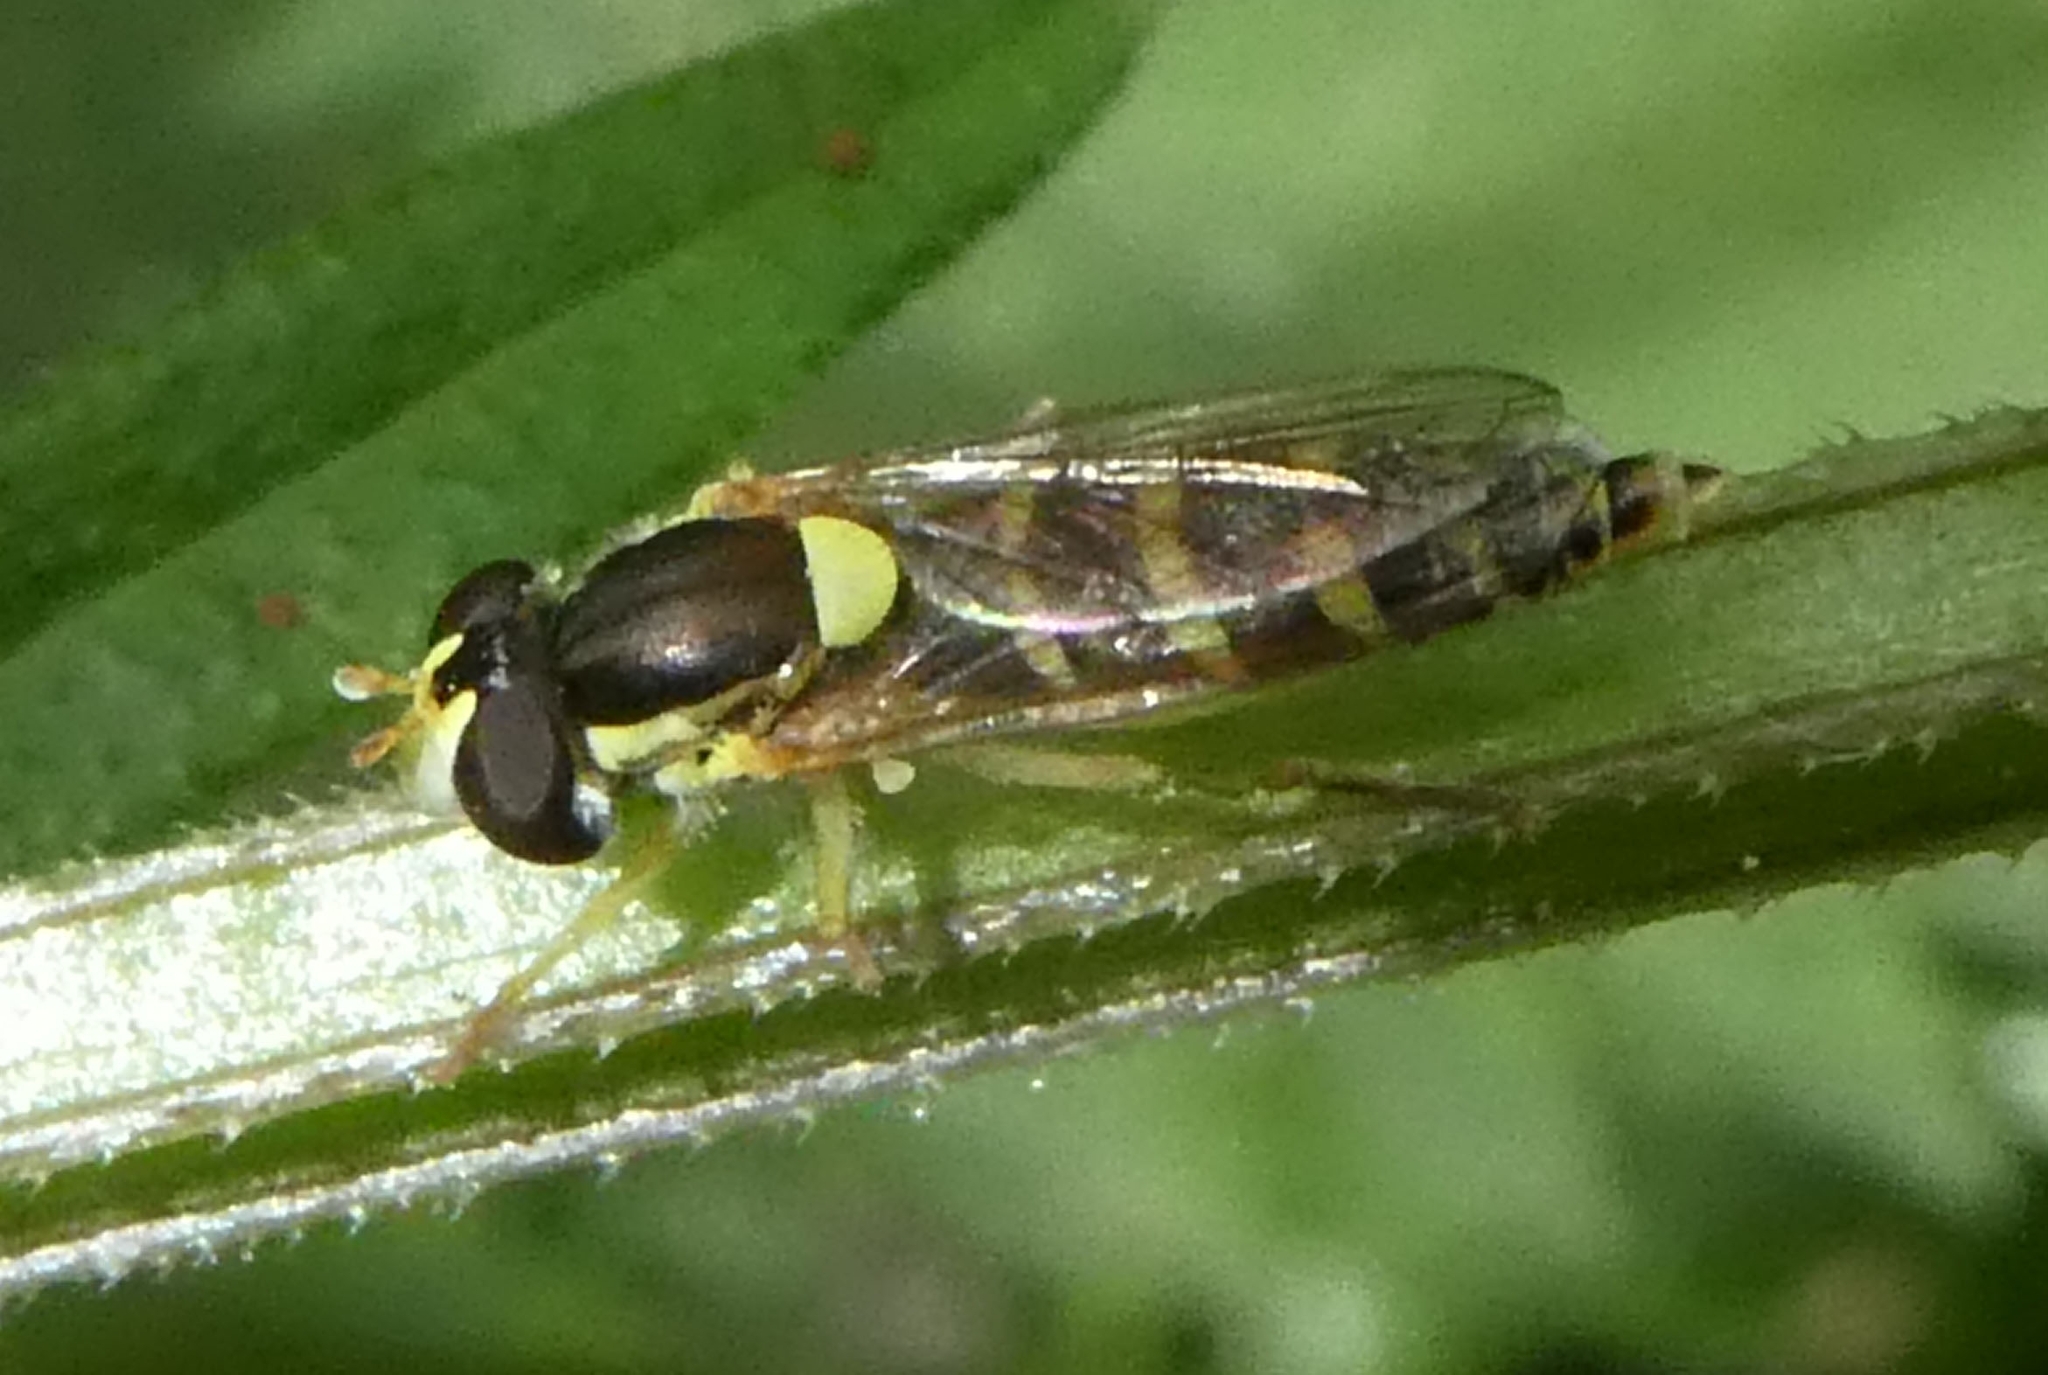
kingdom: Animalia
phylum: Arthropoda
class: Insecta
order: Diptera
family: Syrphidae
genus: Sphaerophoria
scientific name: Sphaerophoria
